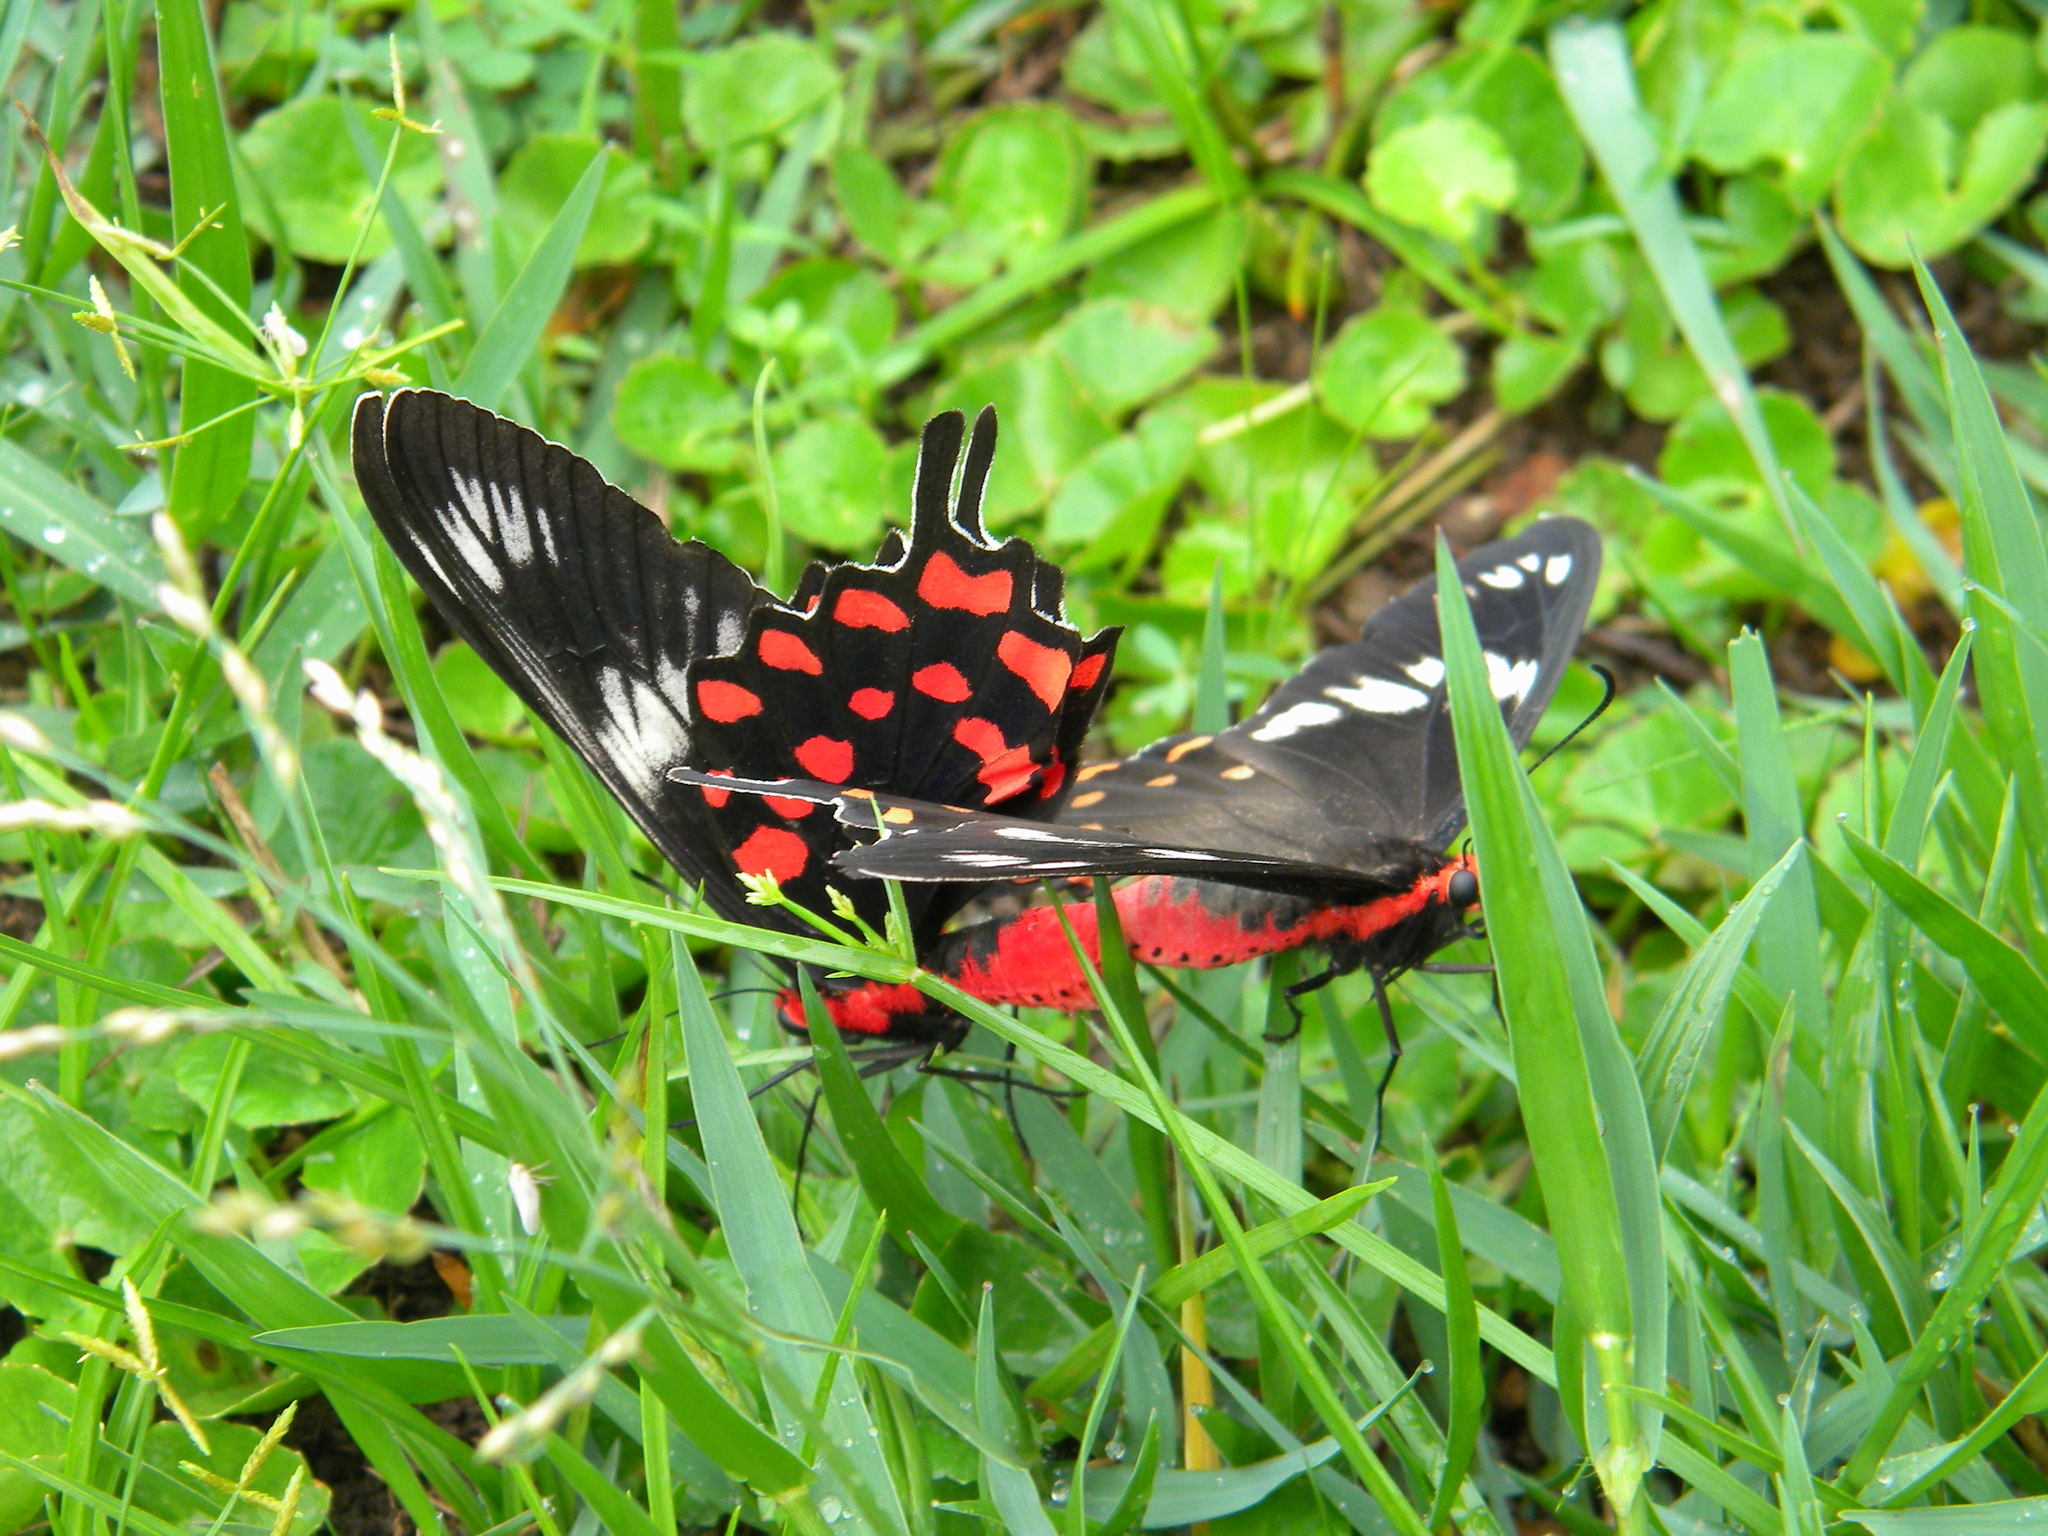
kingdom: Animalia
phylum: Arthropoda
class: Insecta
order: Lepidoptera
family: Papilionidae
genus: Pachliopta
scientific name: Pachliopta hector
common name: Crimson rose
